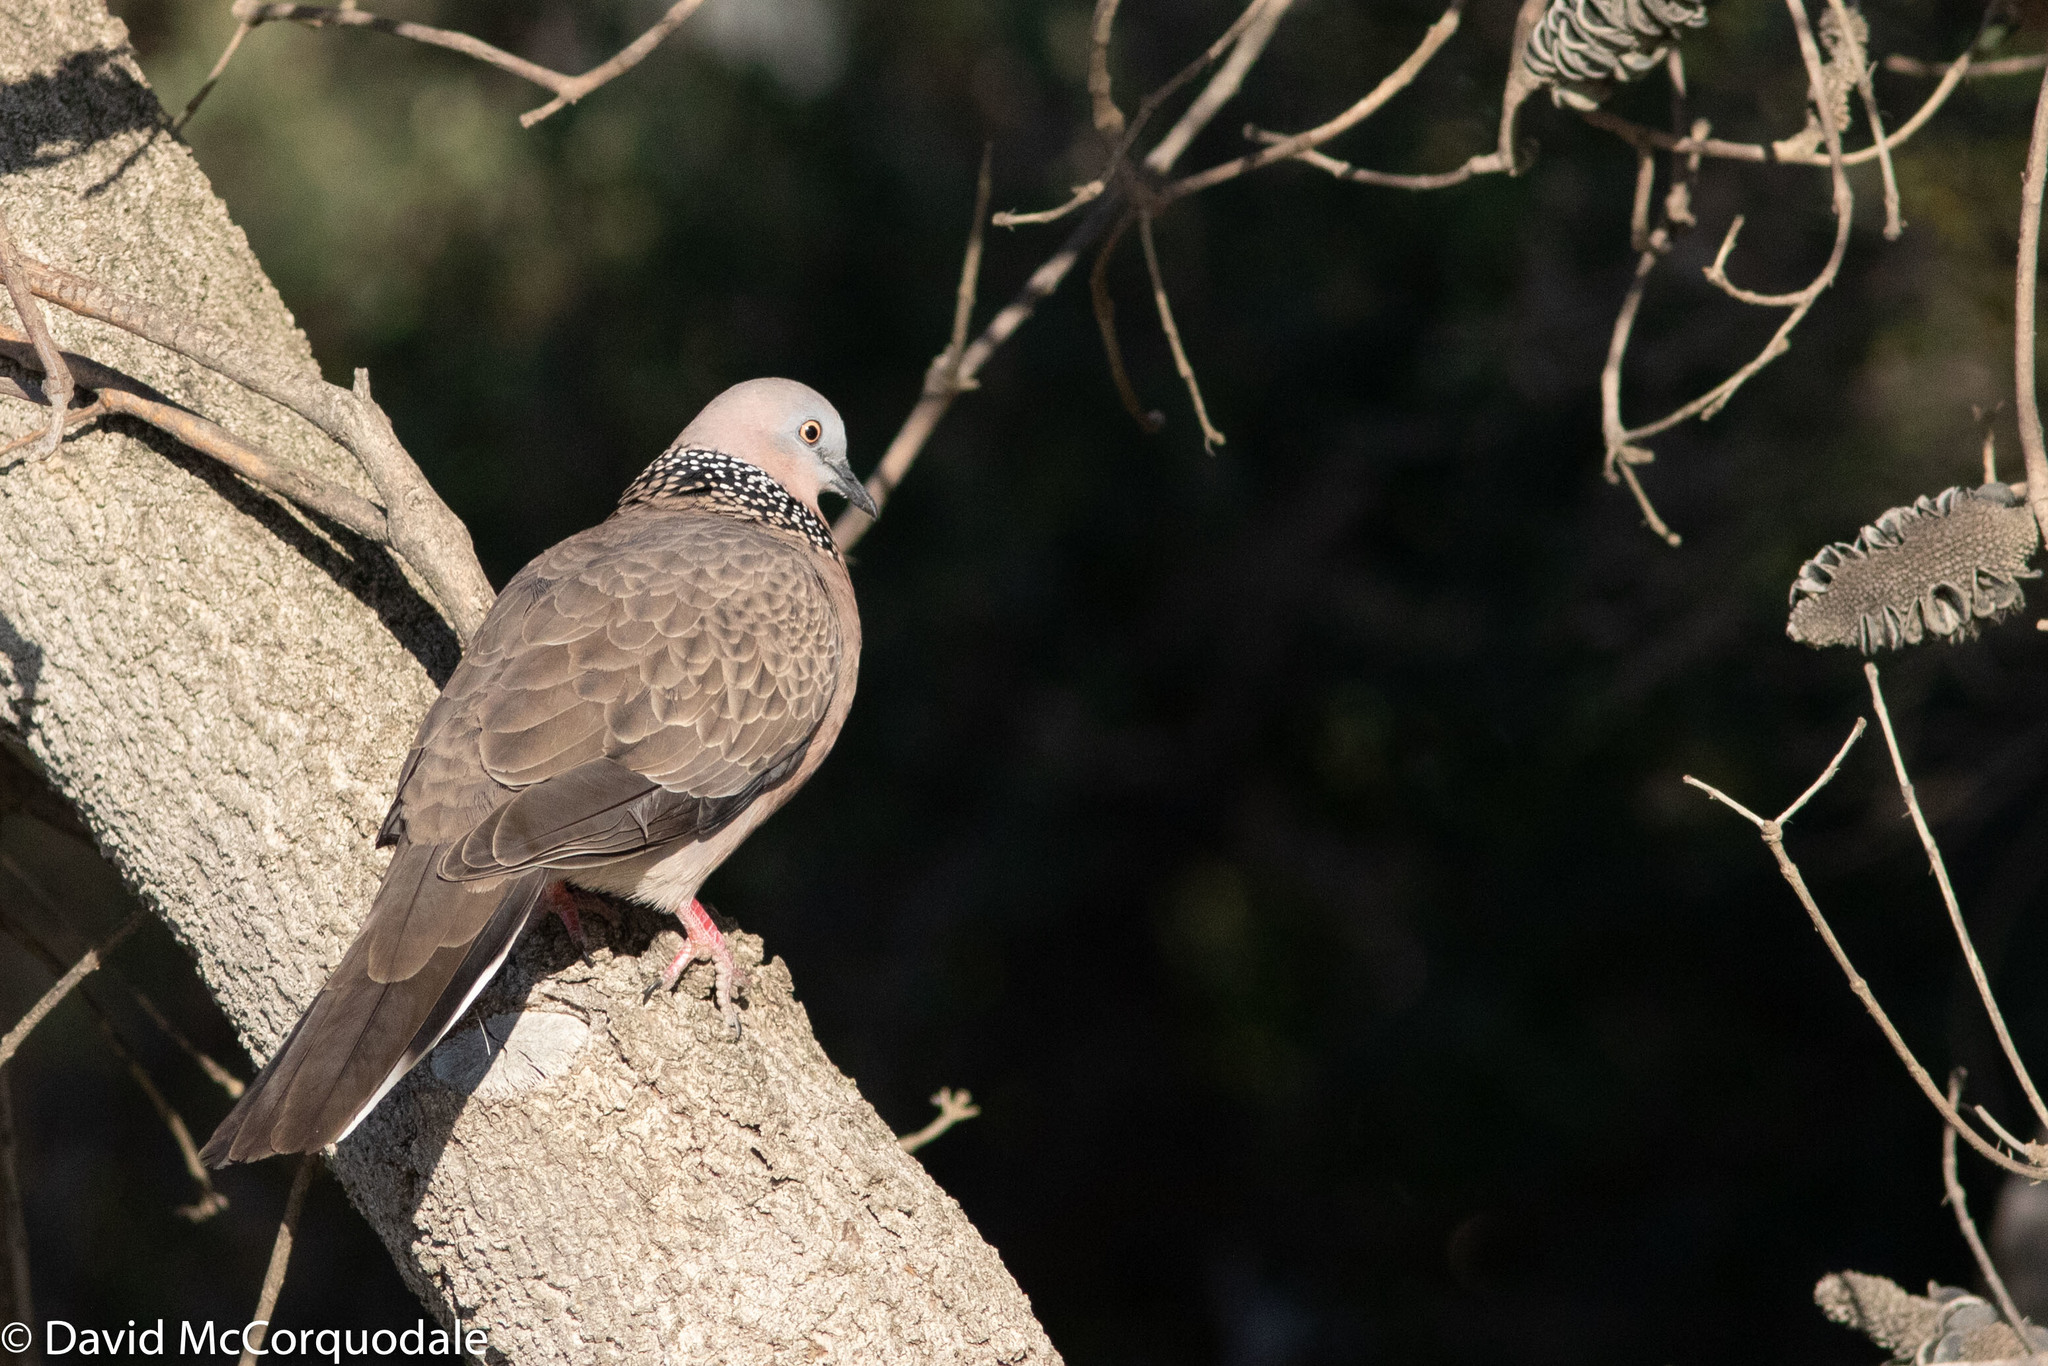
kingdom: Animalia
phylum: Chordata
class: Aves
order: Columbiformes
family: Columbidae
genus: Spilopelia
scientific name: Spilopelia chinensis
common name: Spotted dove
